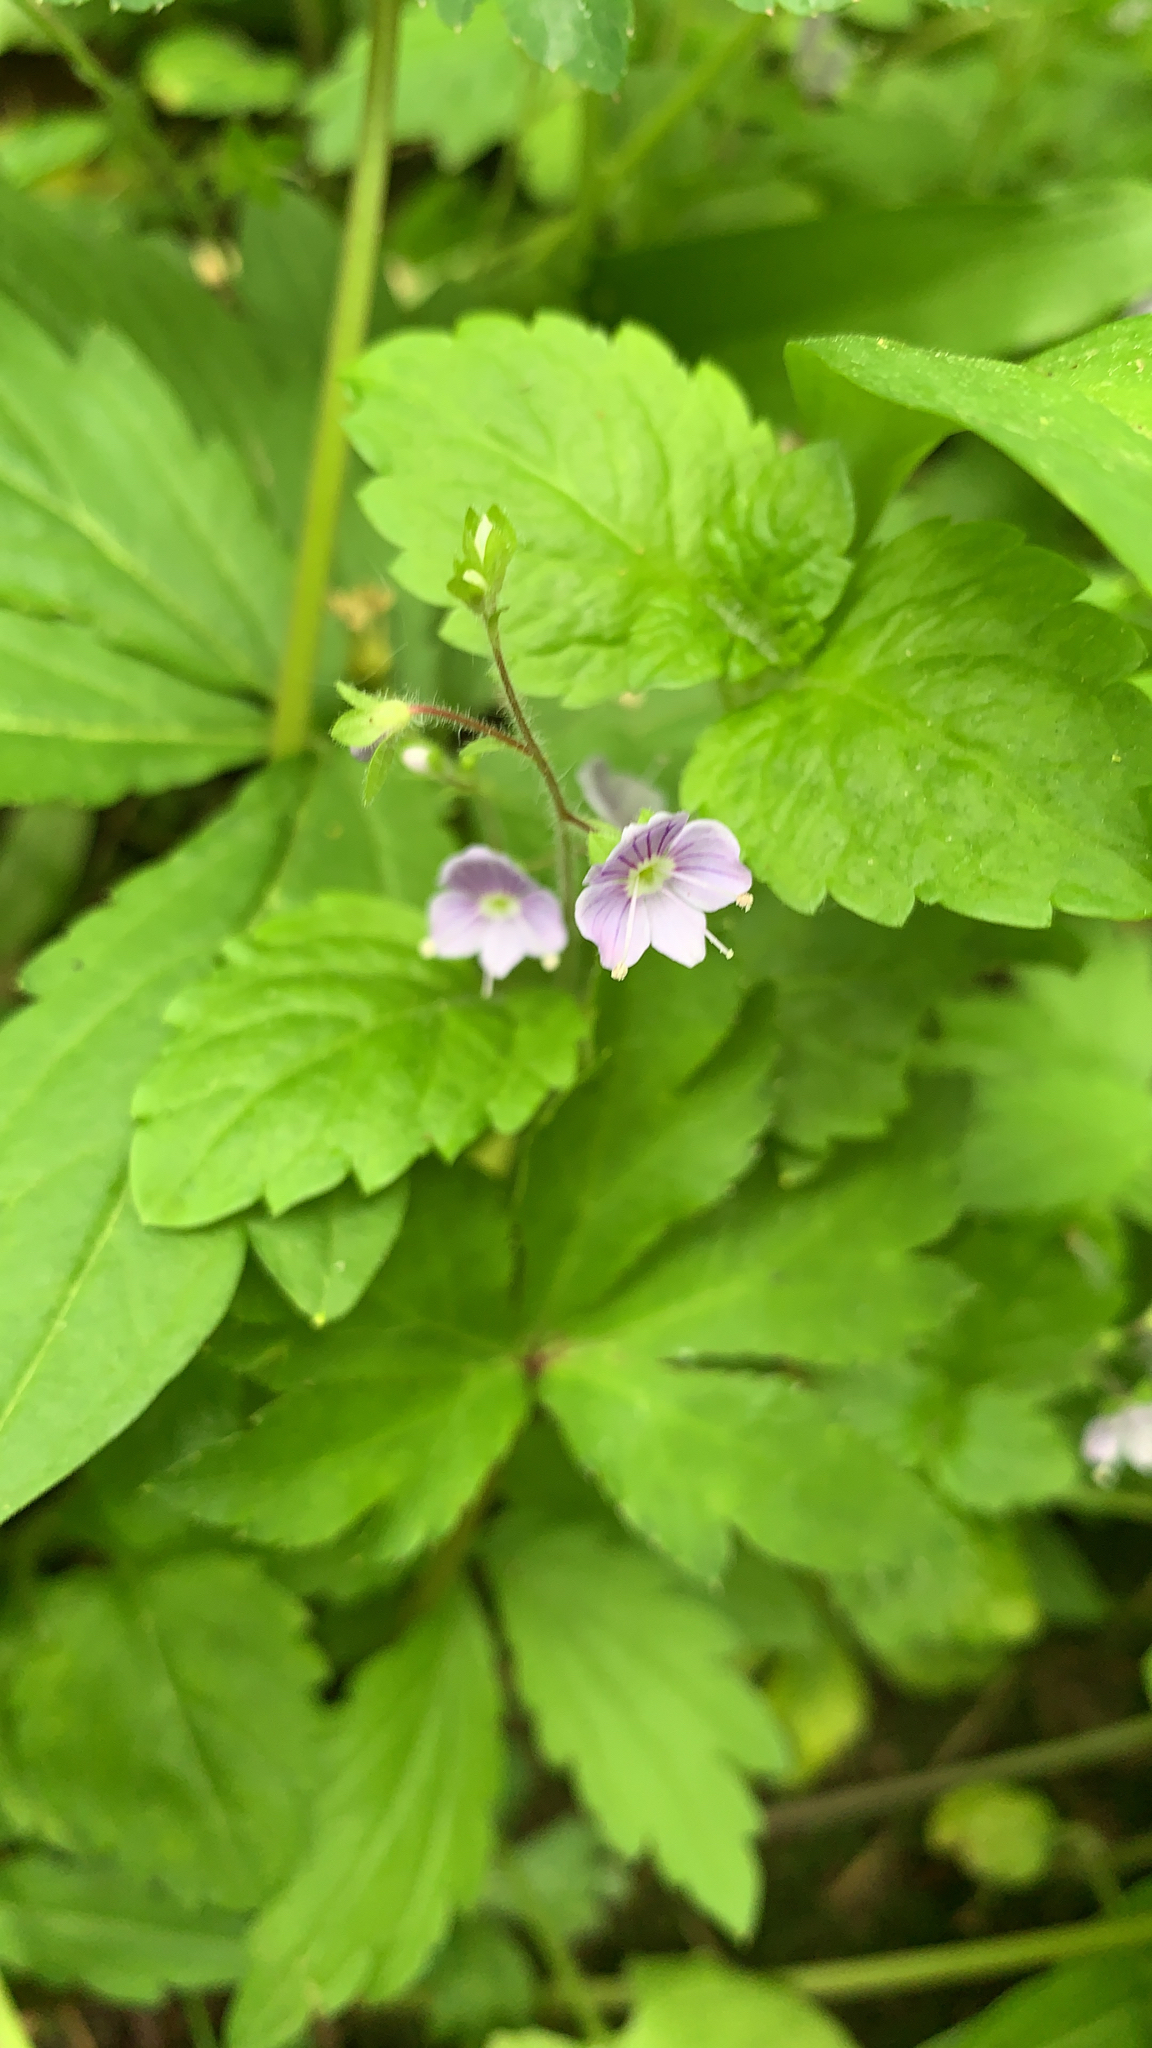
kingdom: Plantae
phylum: Tracheophyta
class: Magnoliopsida
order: Lamiales
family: Plantaginaceae
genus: Veronica
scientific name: Veronica montana
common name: Wood speedwell
